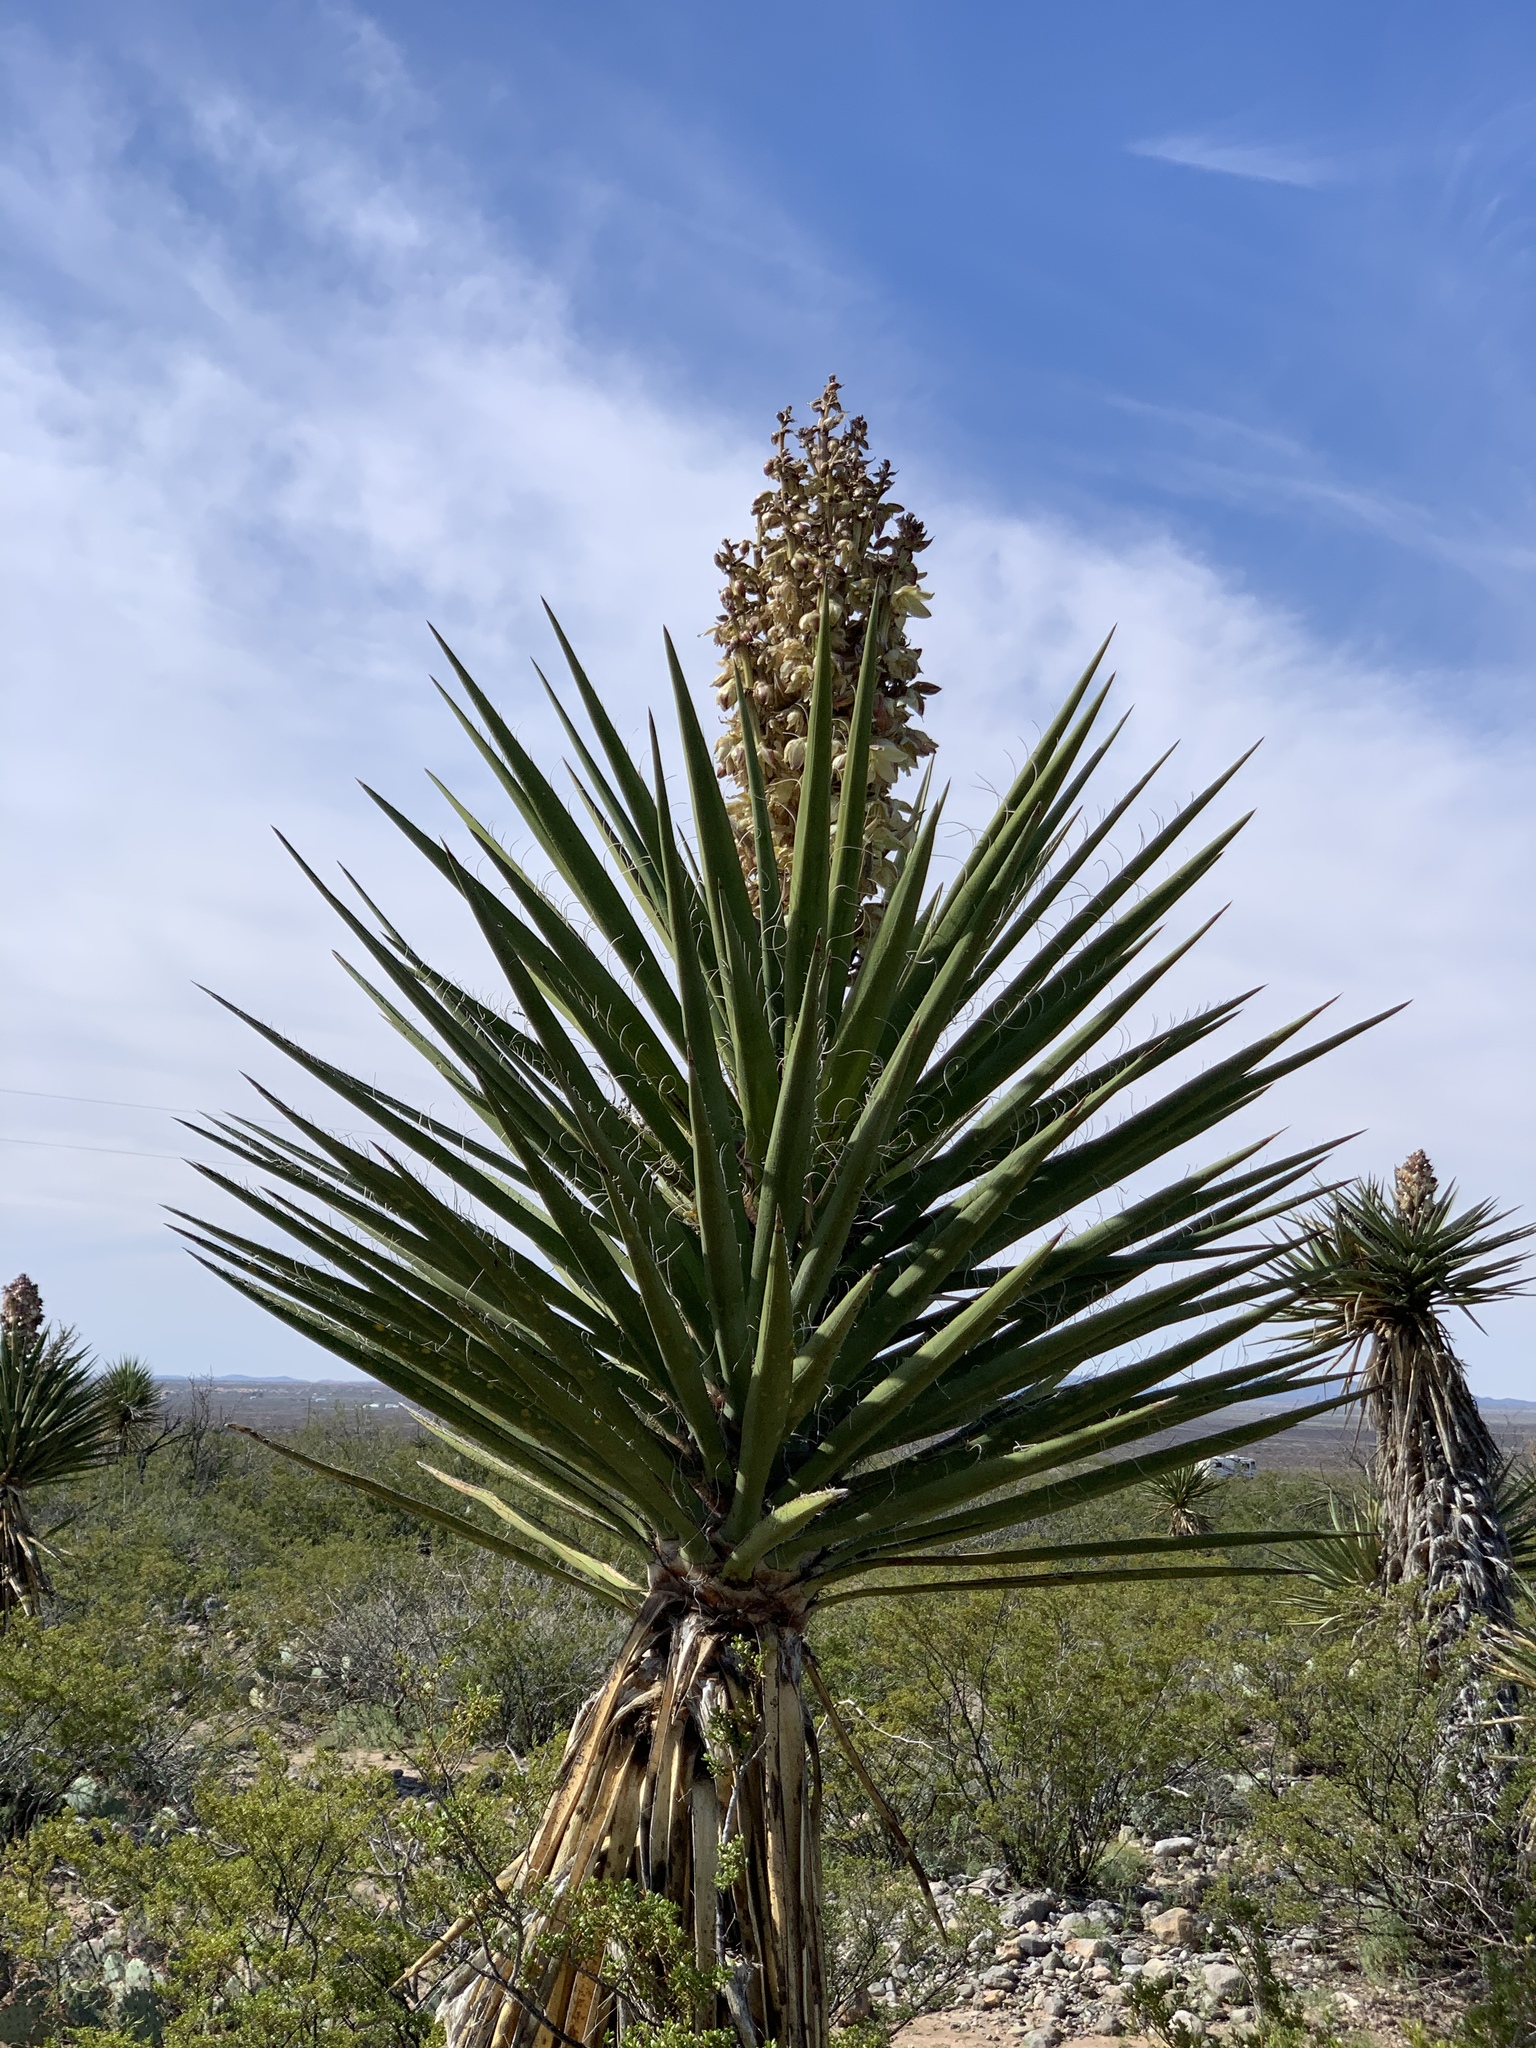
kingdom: Plantae
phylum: Tracheophyta
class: Liliopsida
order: Asparagales
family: Asparagaceae
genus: Yucca
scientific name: Yucca treculiana
